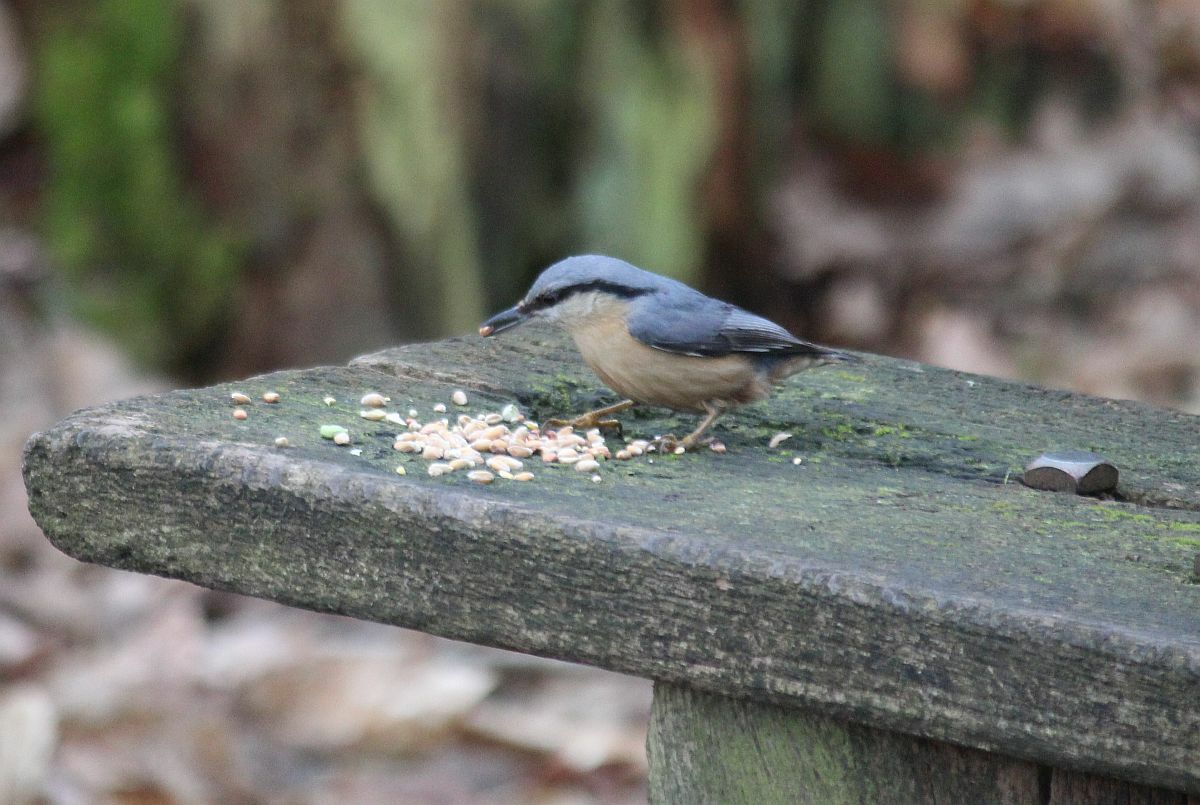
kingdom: Animalia
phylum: Chordata
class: Aves
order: Passeriformes
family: Sittidae
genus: Sitta
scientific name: Sitta europaea
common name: Eurasian nuthatch
